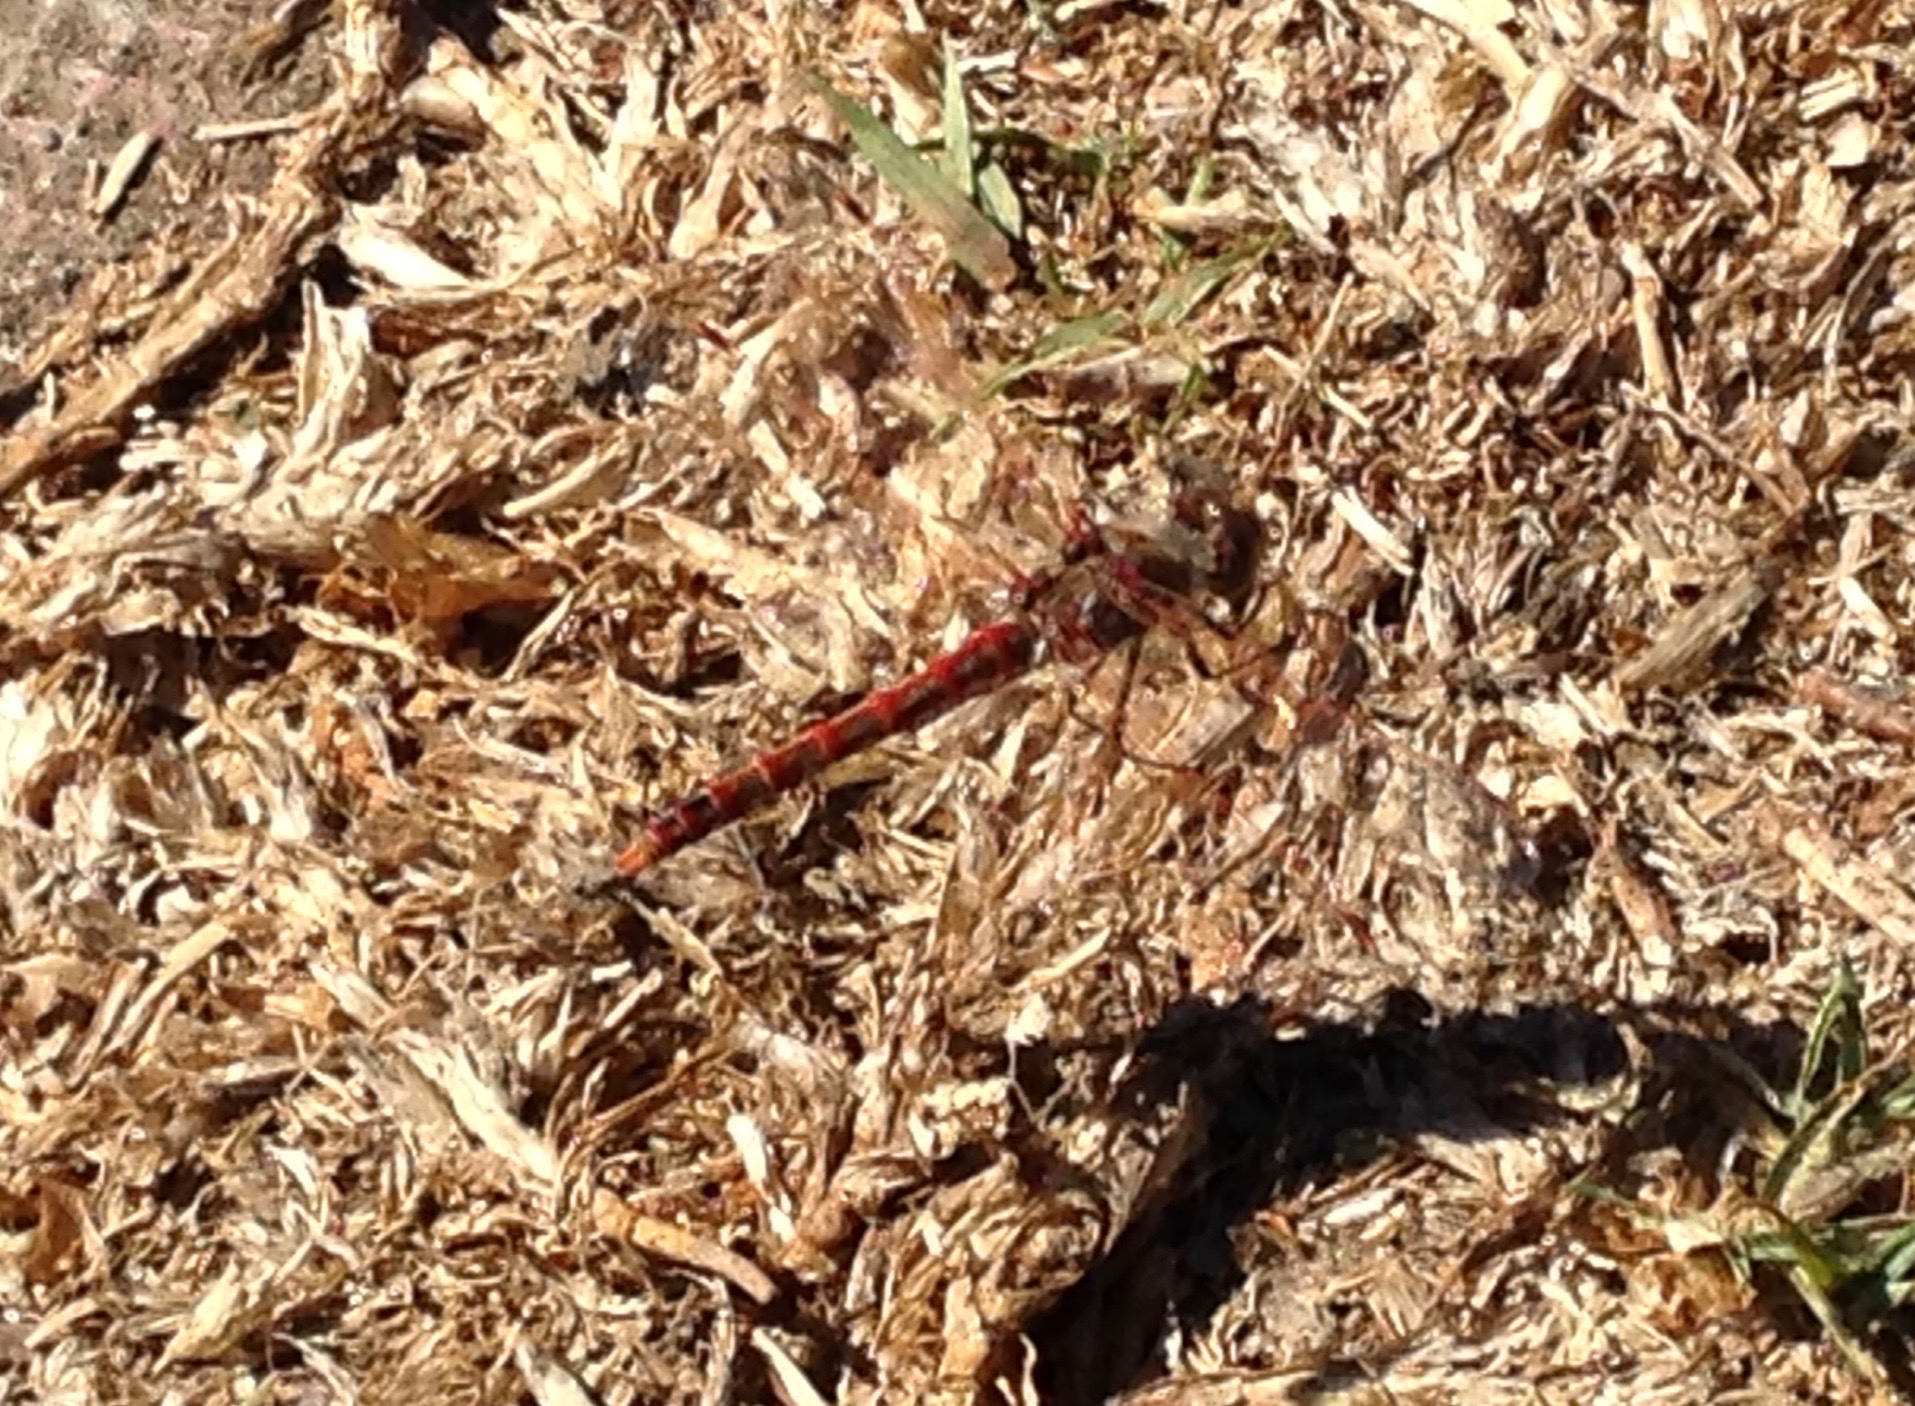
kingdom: Animalia
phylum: Arthropoda
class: Insecta
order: Odonata
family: Libellulidae
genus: Sympetrum
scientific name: Sympetrum corruptum
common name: Variegated meadowhawk
